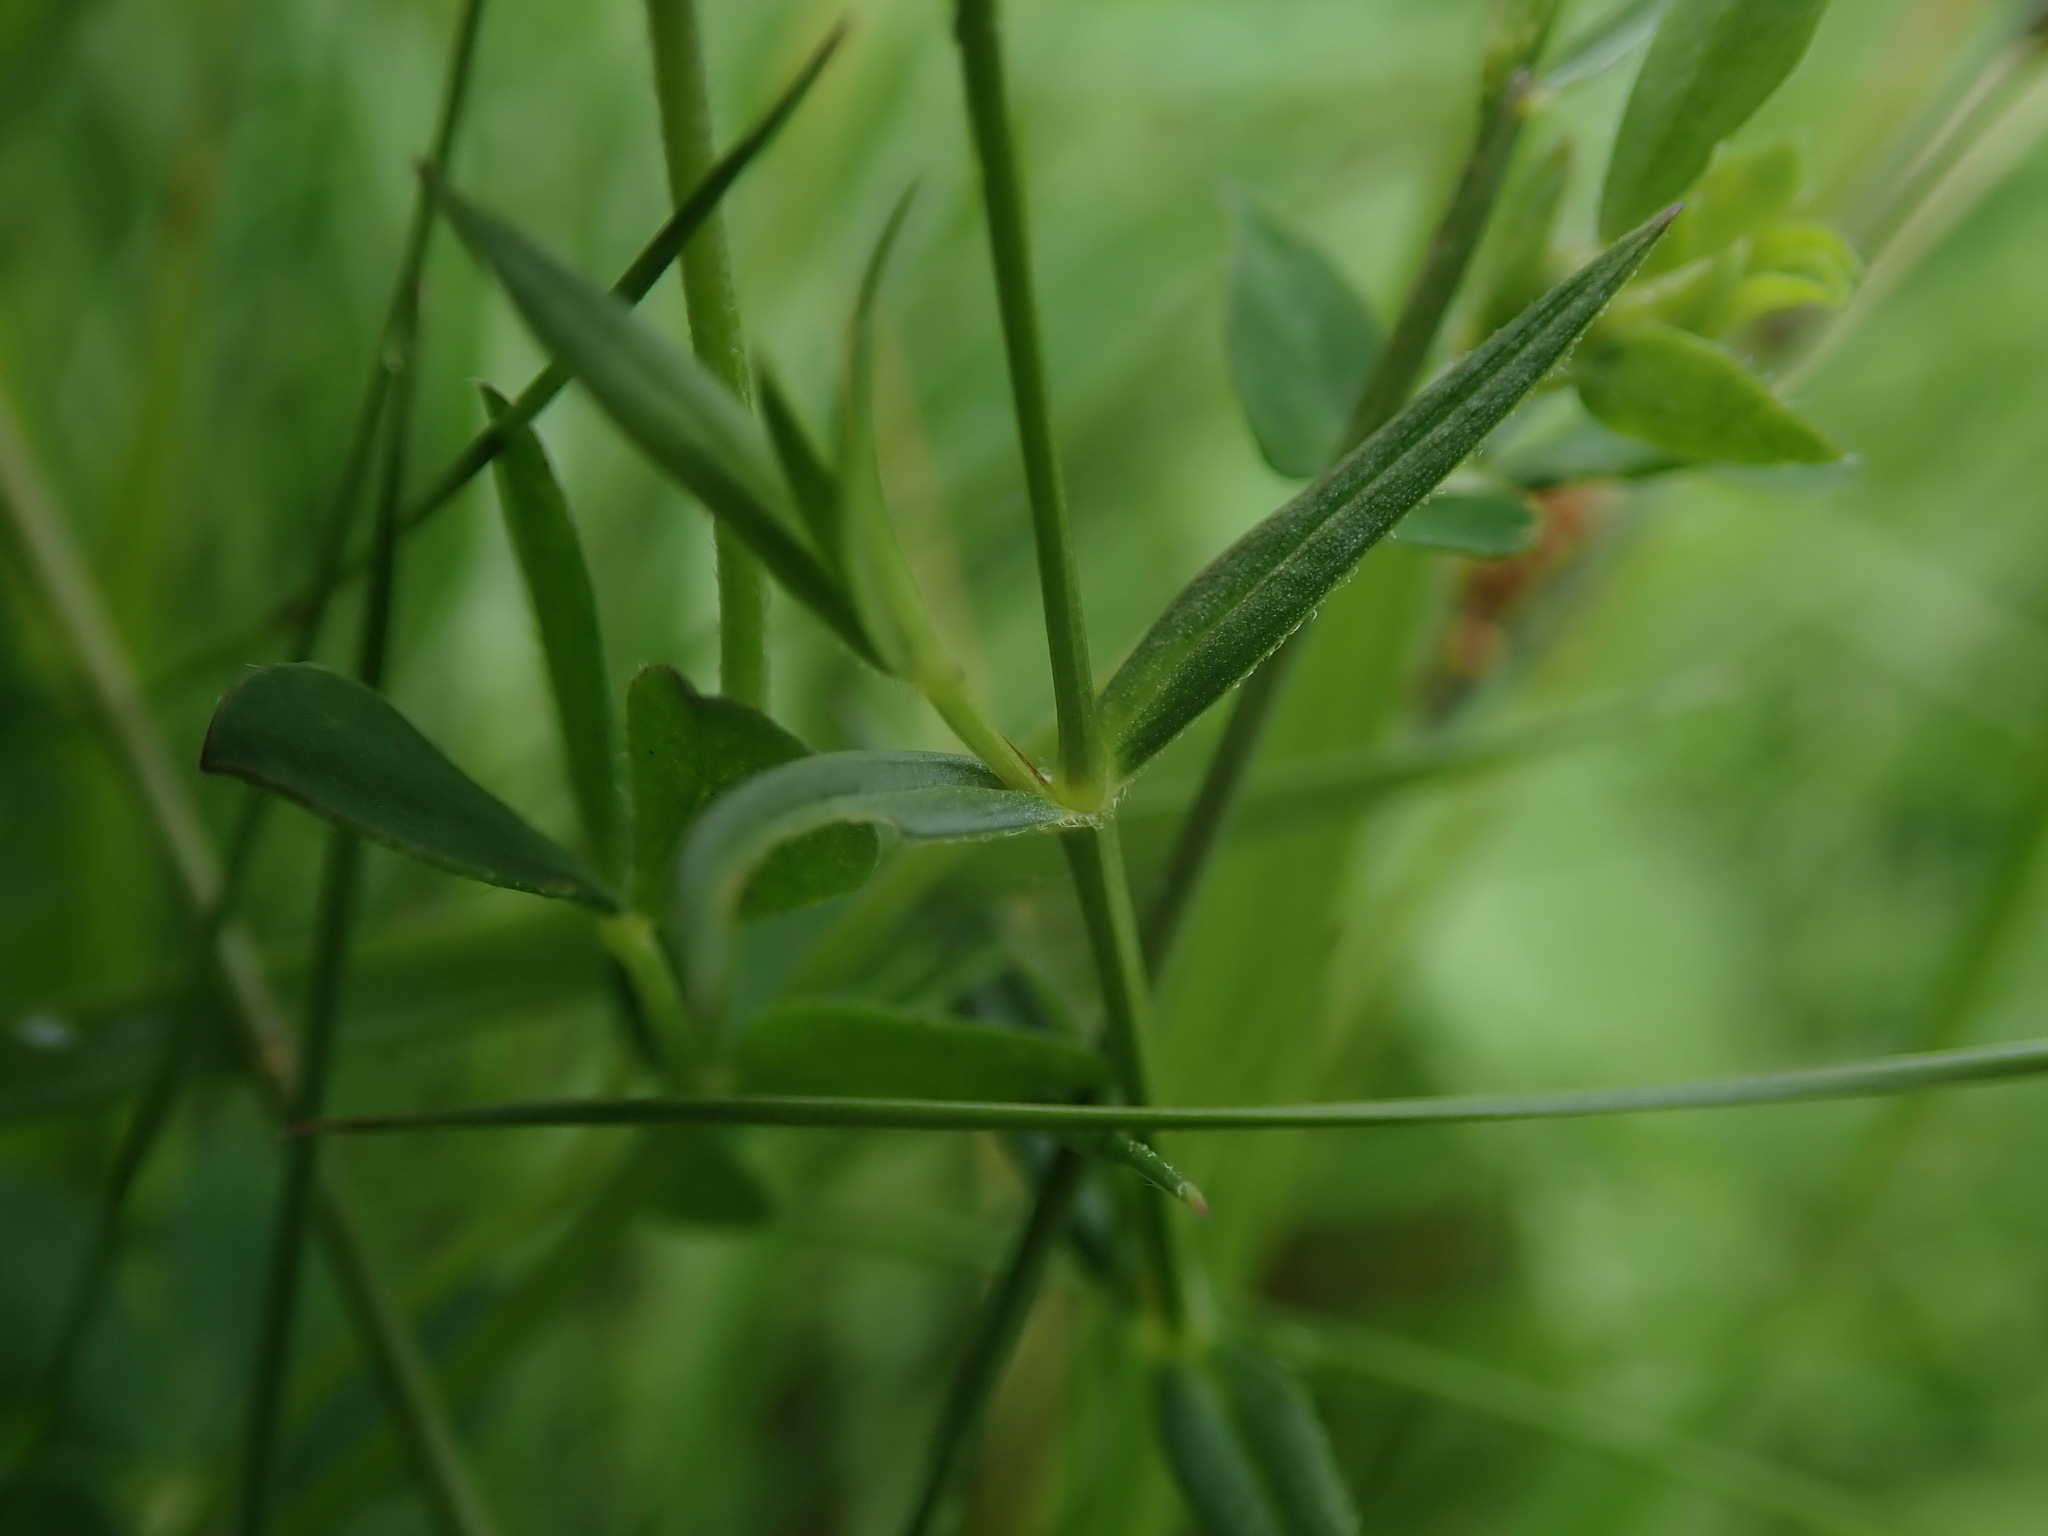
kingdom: Plantae
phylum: Tracheophyta
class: Magnoliopsida
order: Caryophyllales
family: Caryophyllaceae
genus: Stellaria
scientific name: Stellaria graminea
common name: Grass-like starwort
